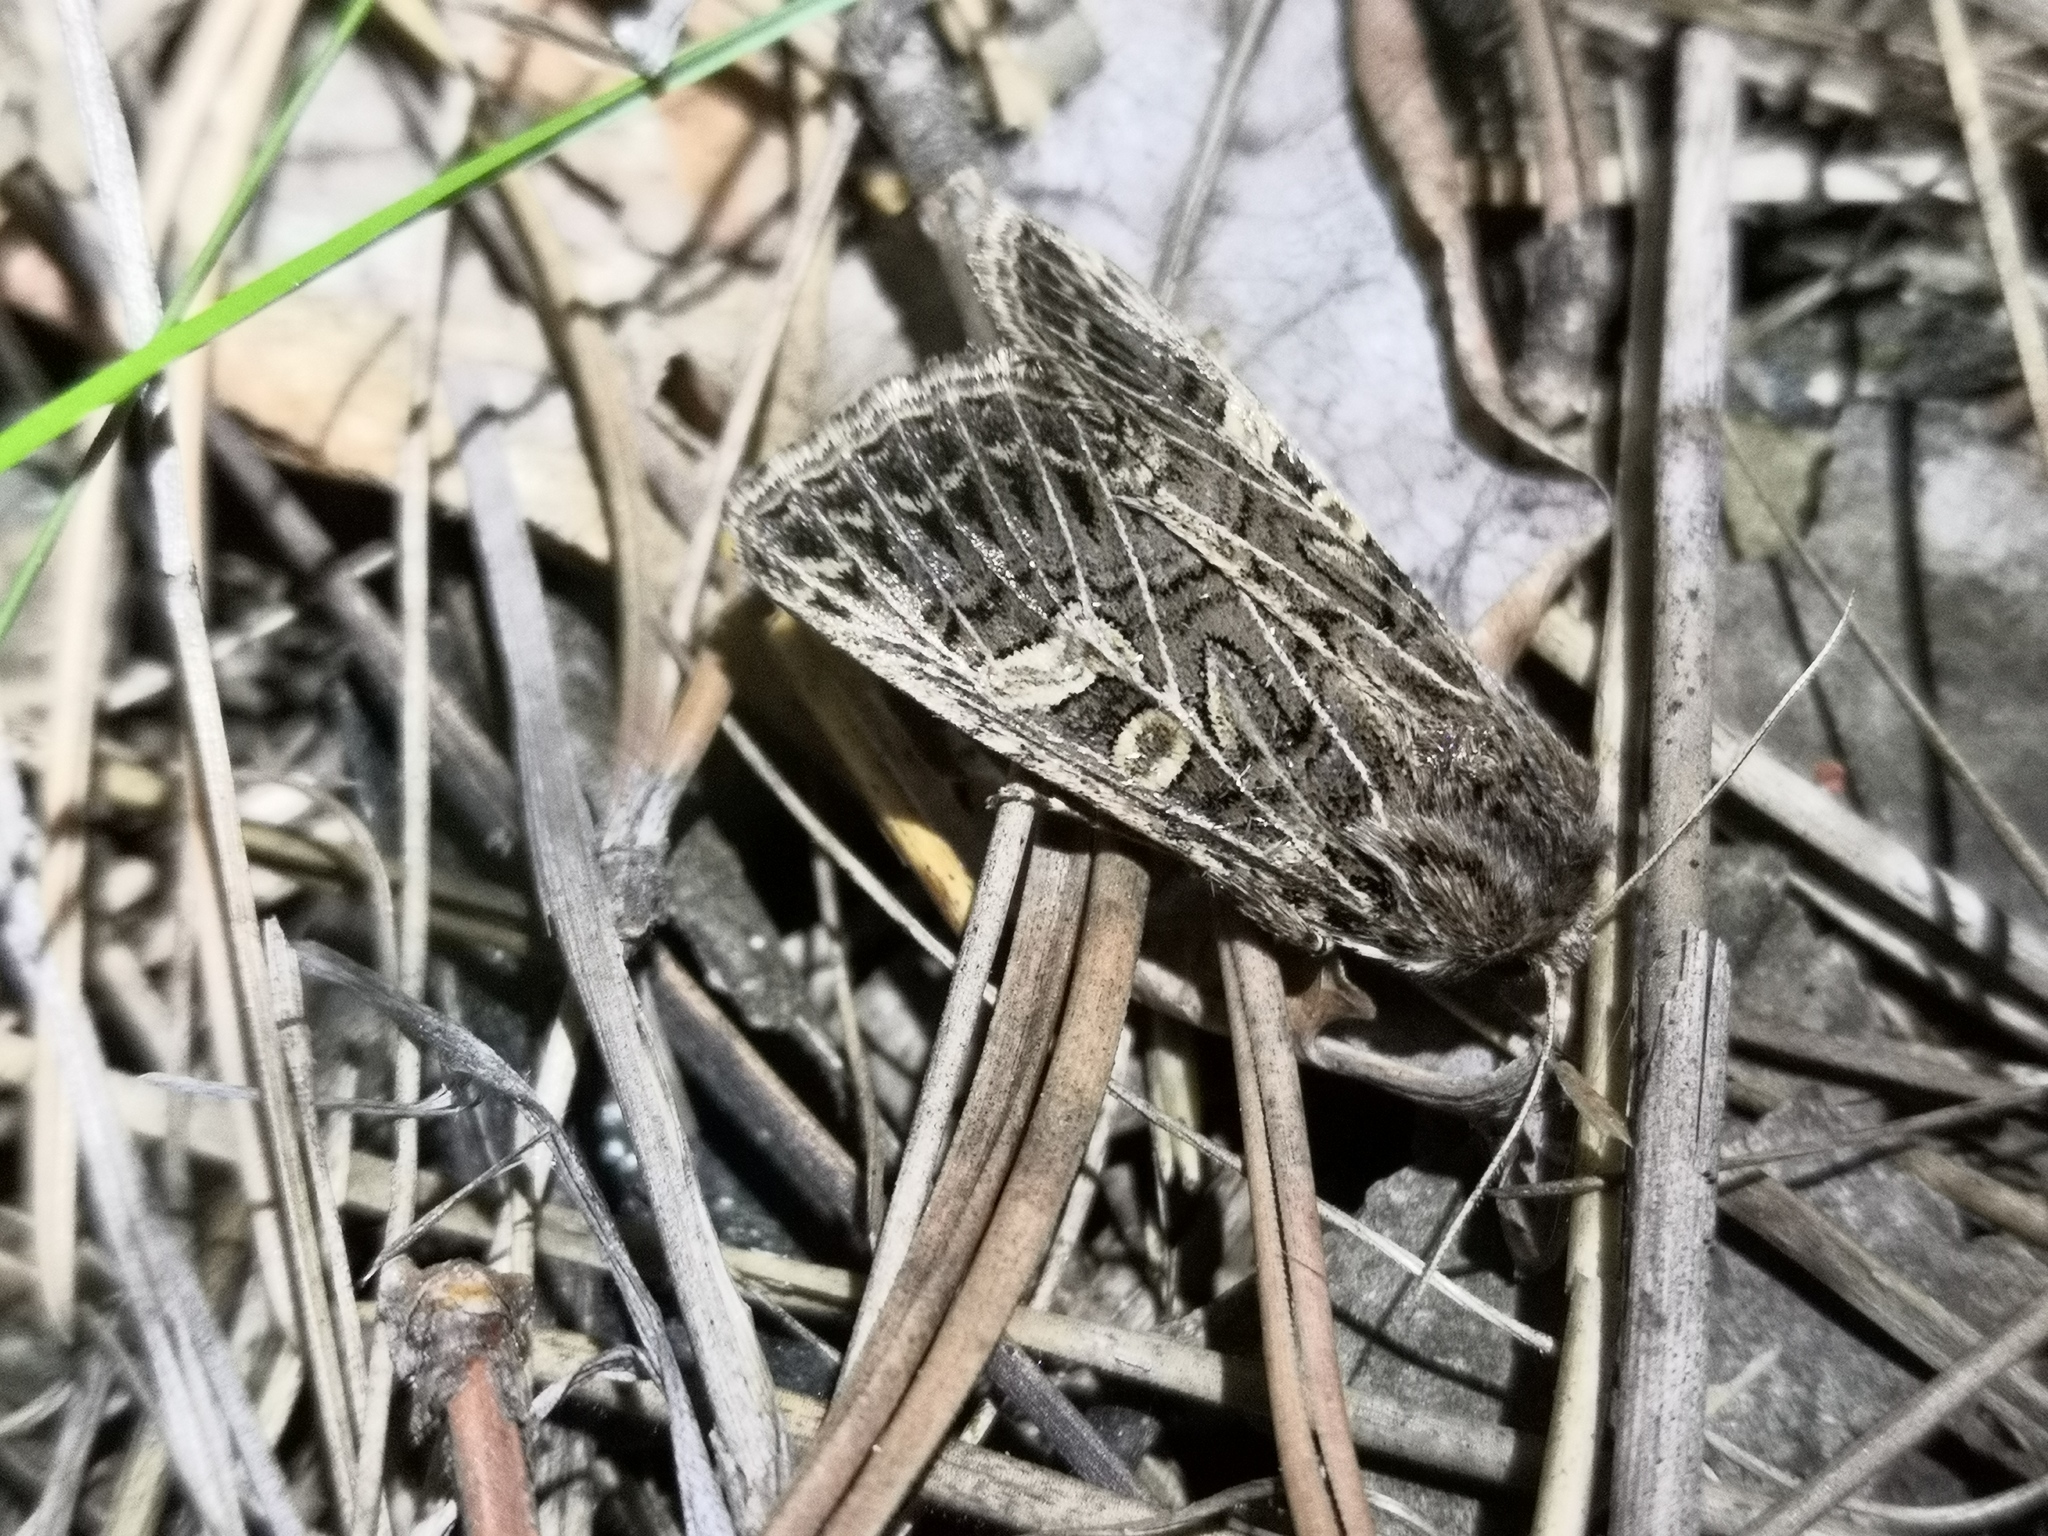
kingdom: Animalia
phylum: Arthropoda
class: Insecta
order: Lepidoptera
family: Noctuidae
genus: Tholera
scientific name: Tholera decimalis
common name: Feathered gothic
